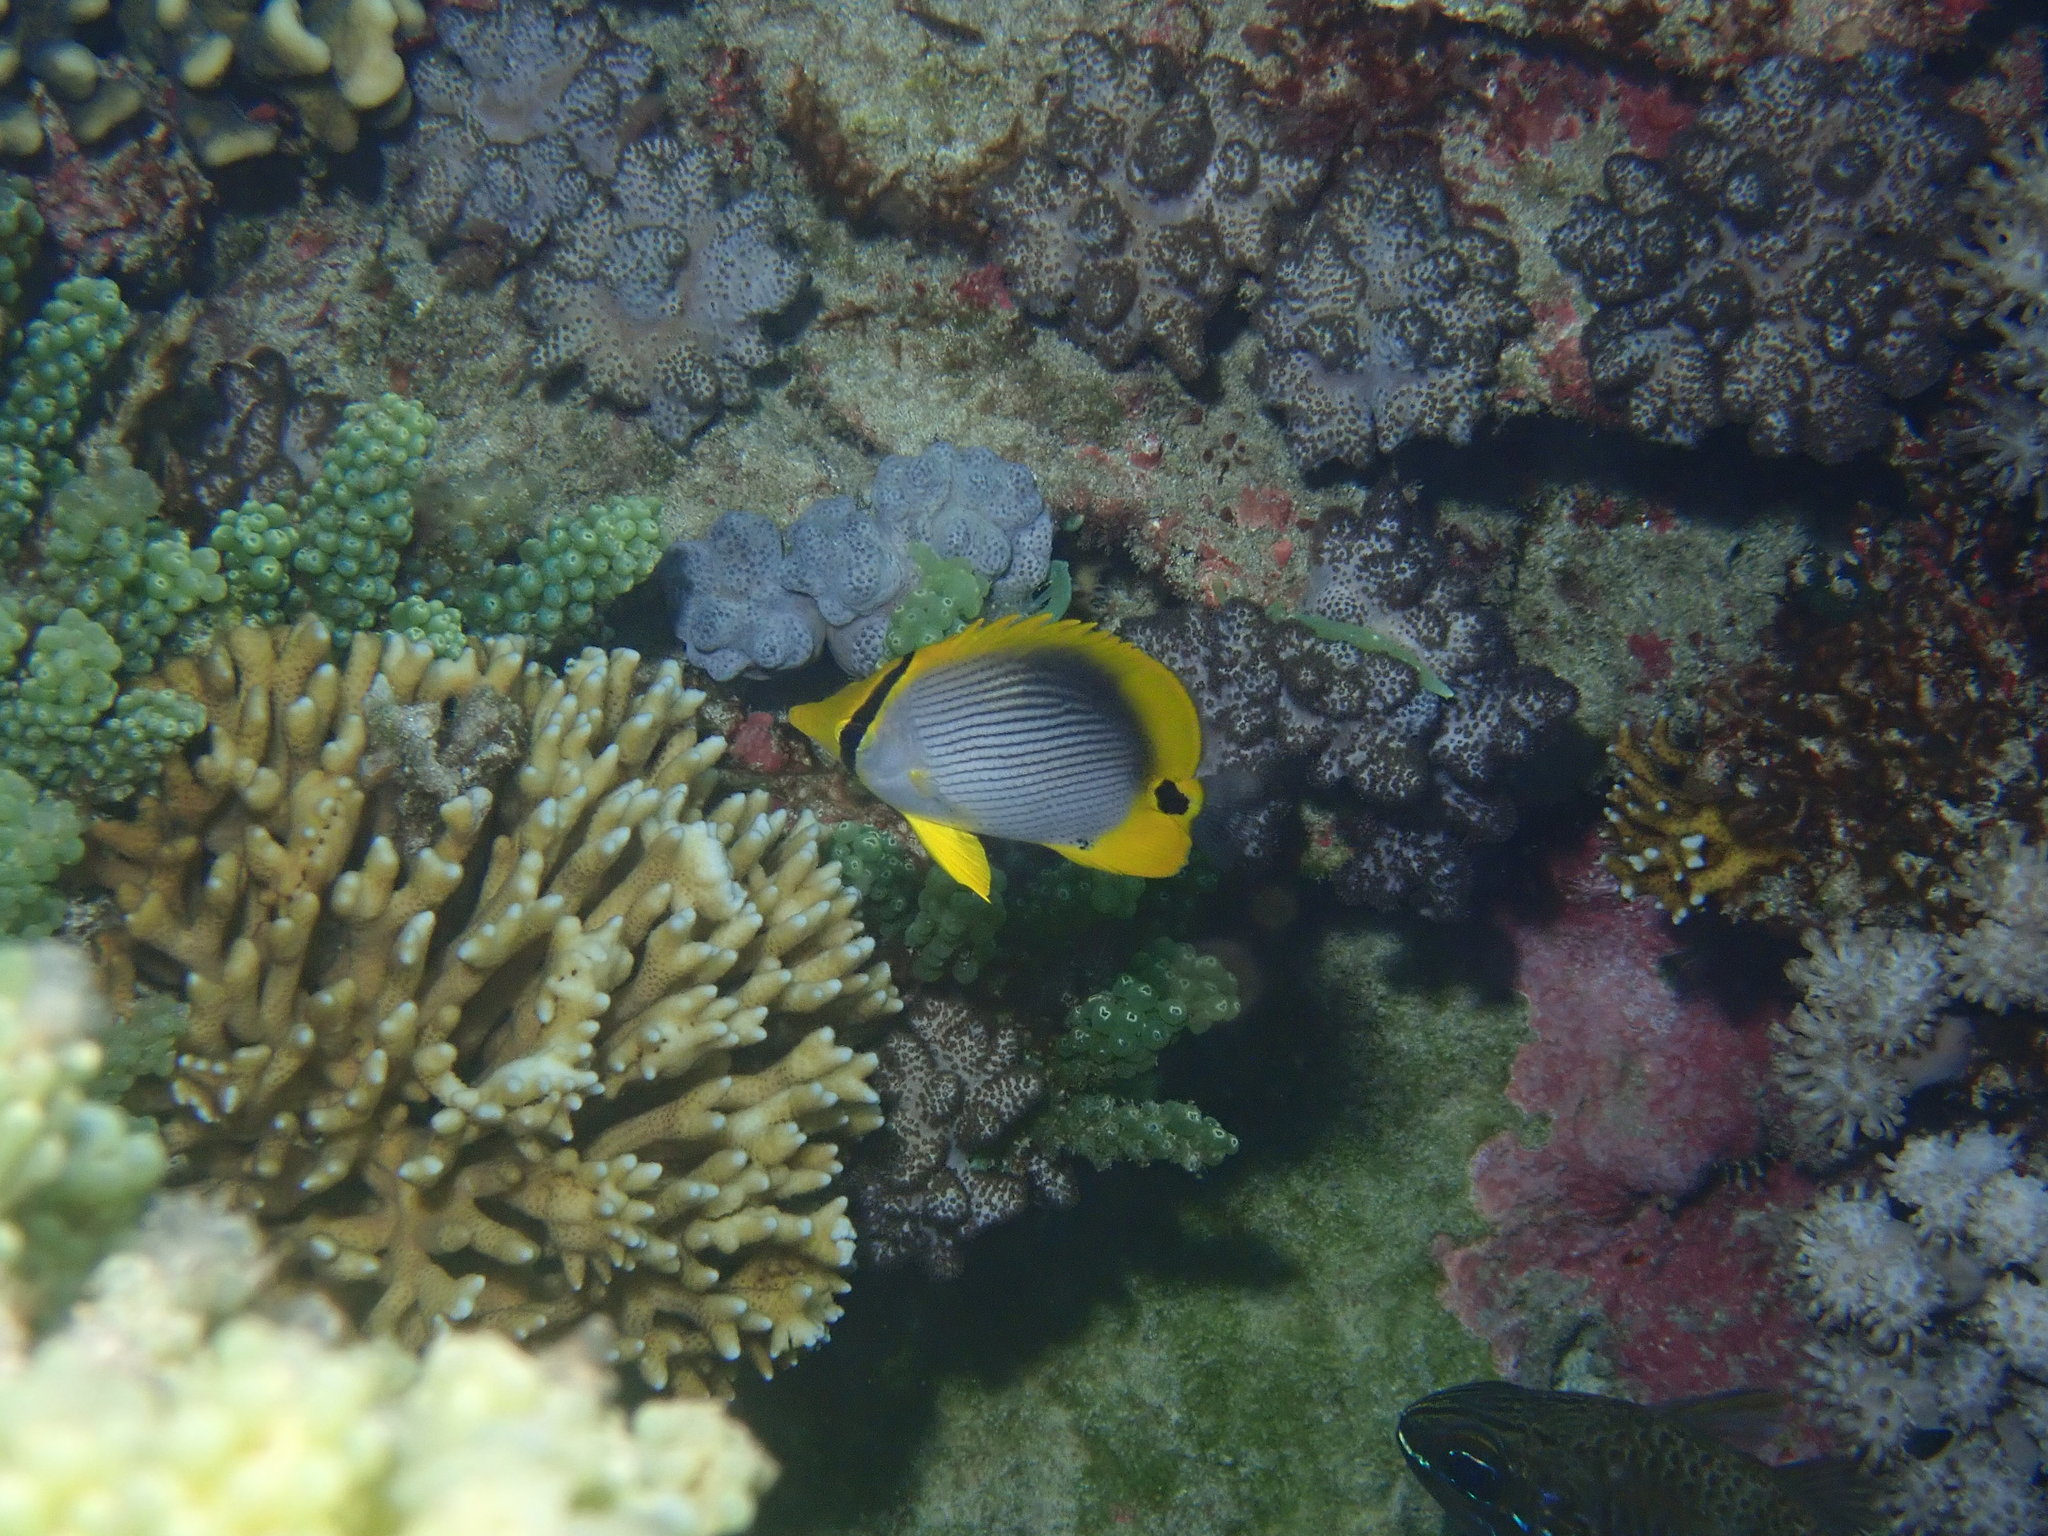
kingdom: Animalia
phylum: Chordata
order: Perciformes
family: Chaetodontidae
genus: Chaetodon
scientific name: Chaetodon melannotus
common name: Blackback butterflyfish
